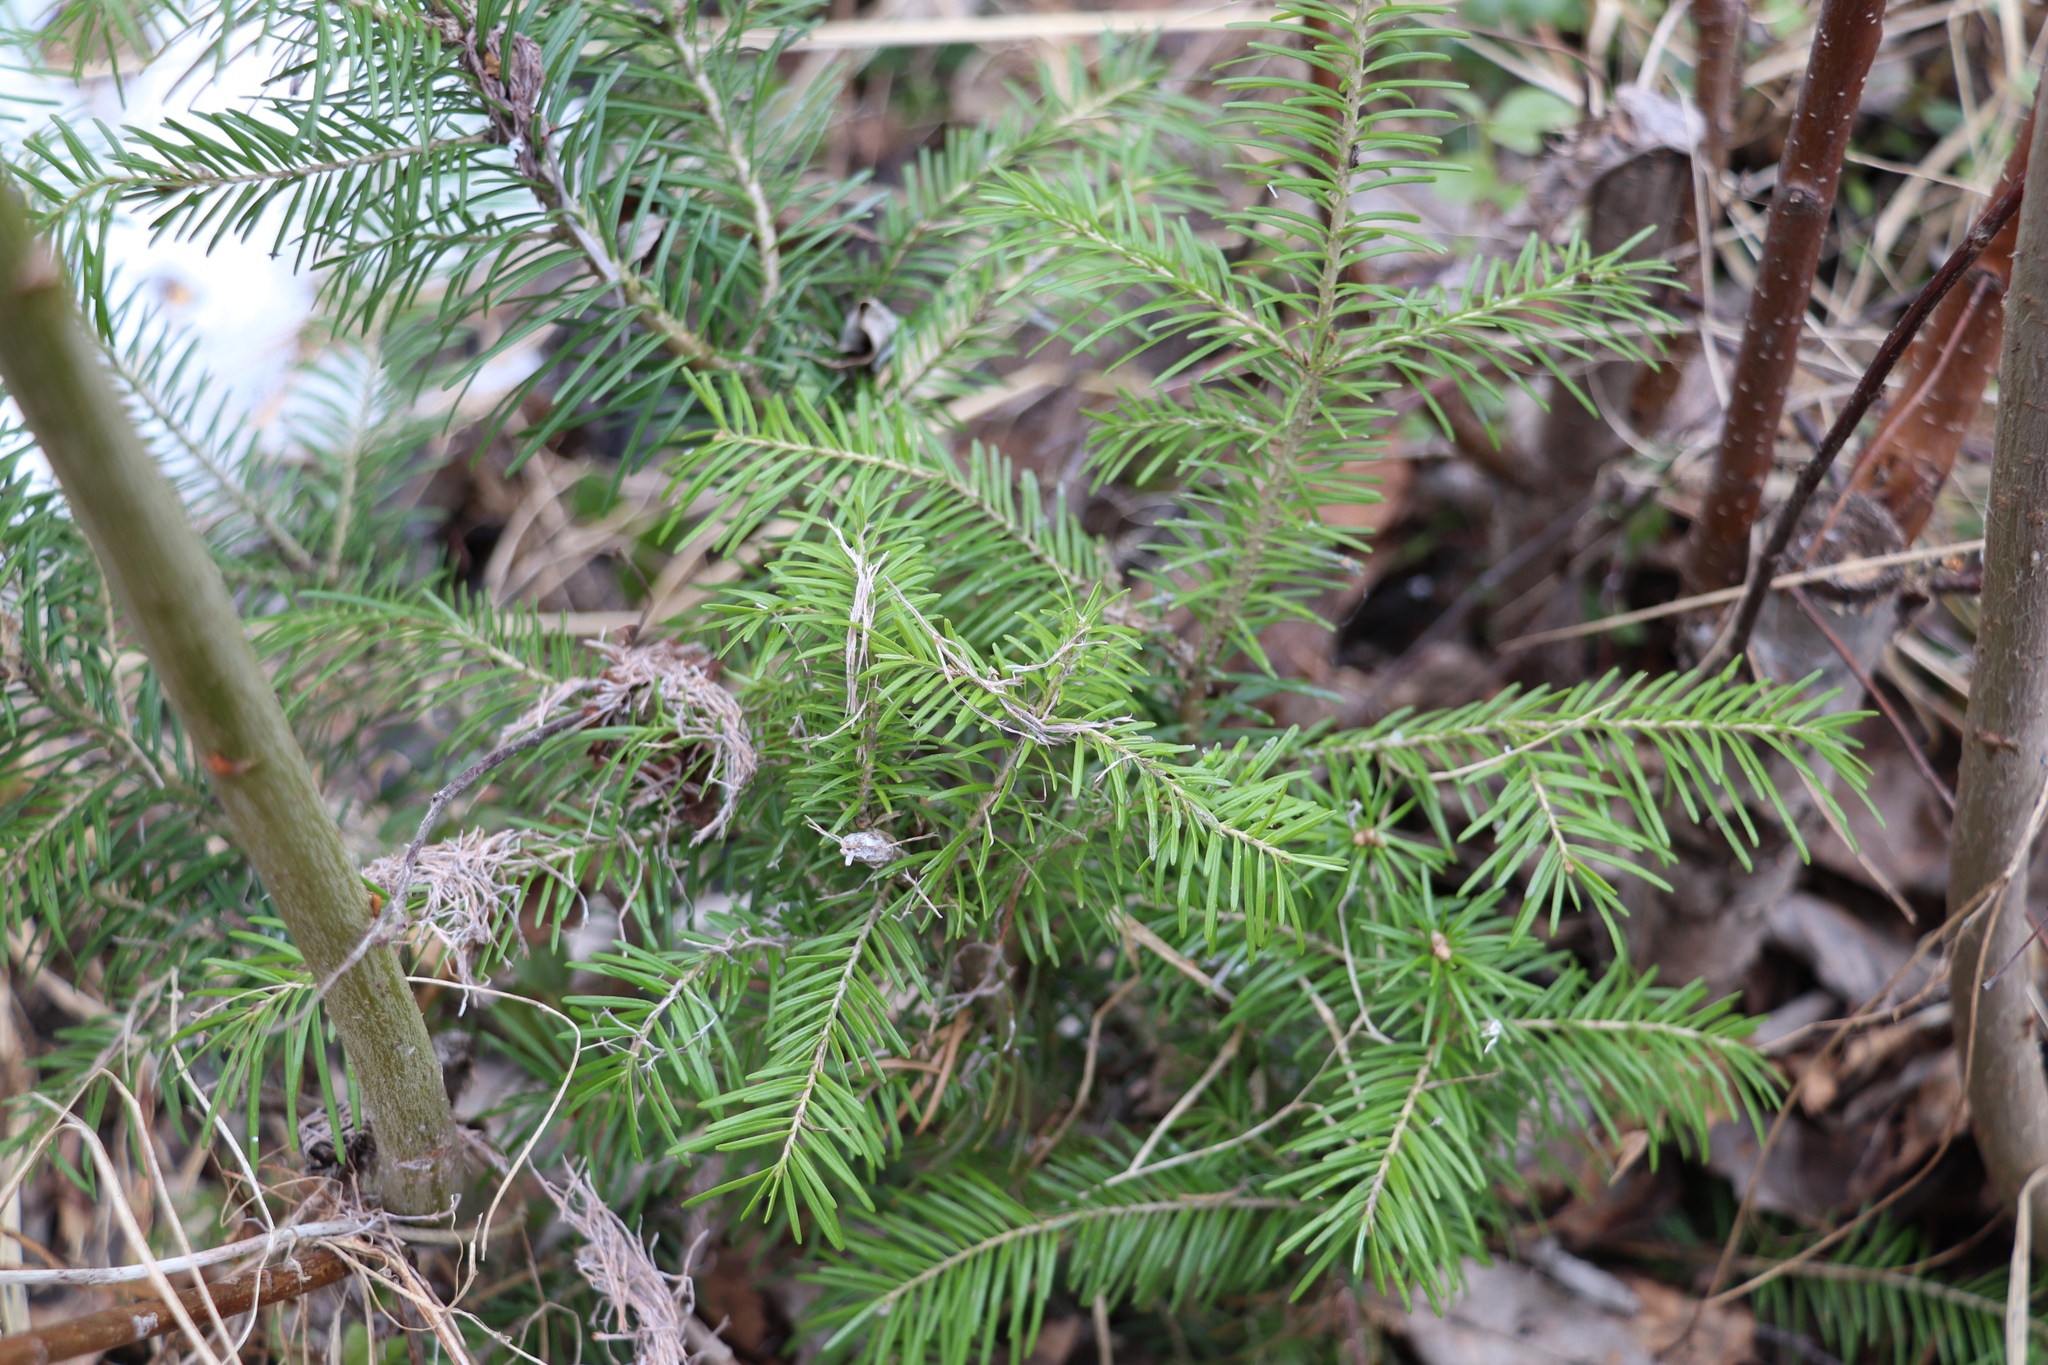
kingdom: Plantae
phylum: Tracheophyta
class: Pinopsida
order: Pinales
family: Pinaceae
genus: Abies
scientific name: Abies sibirica
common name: Siberian fir
